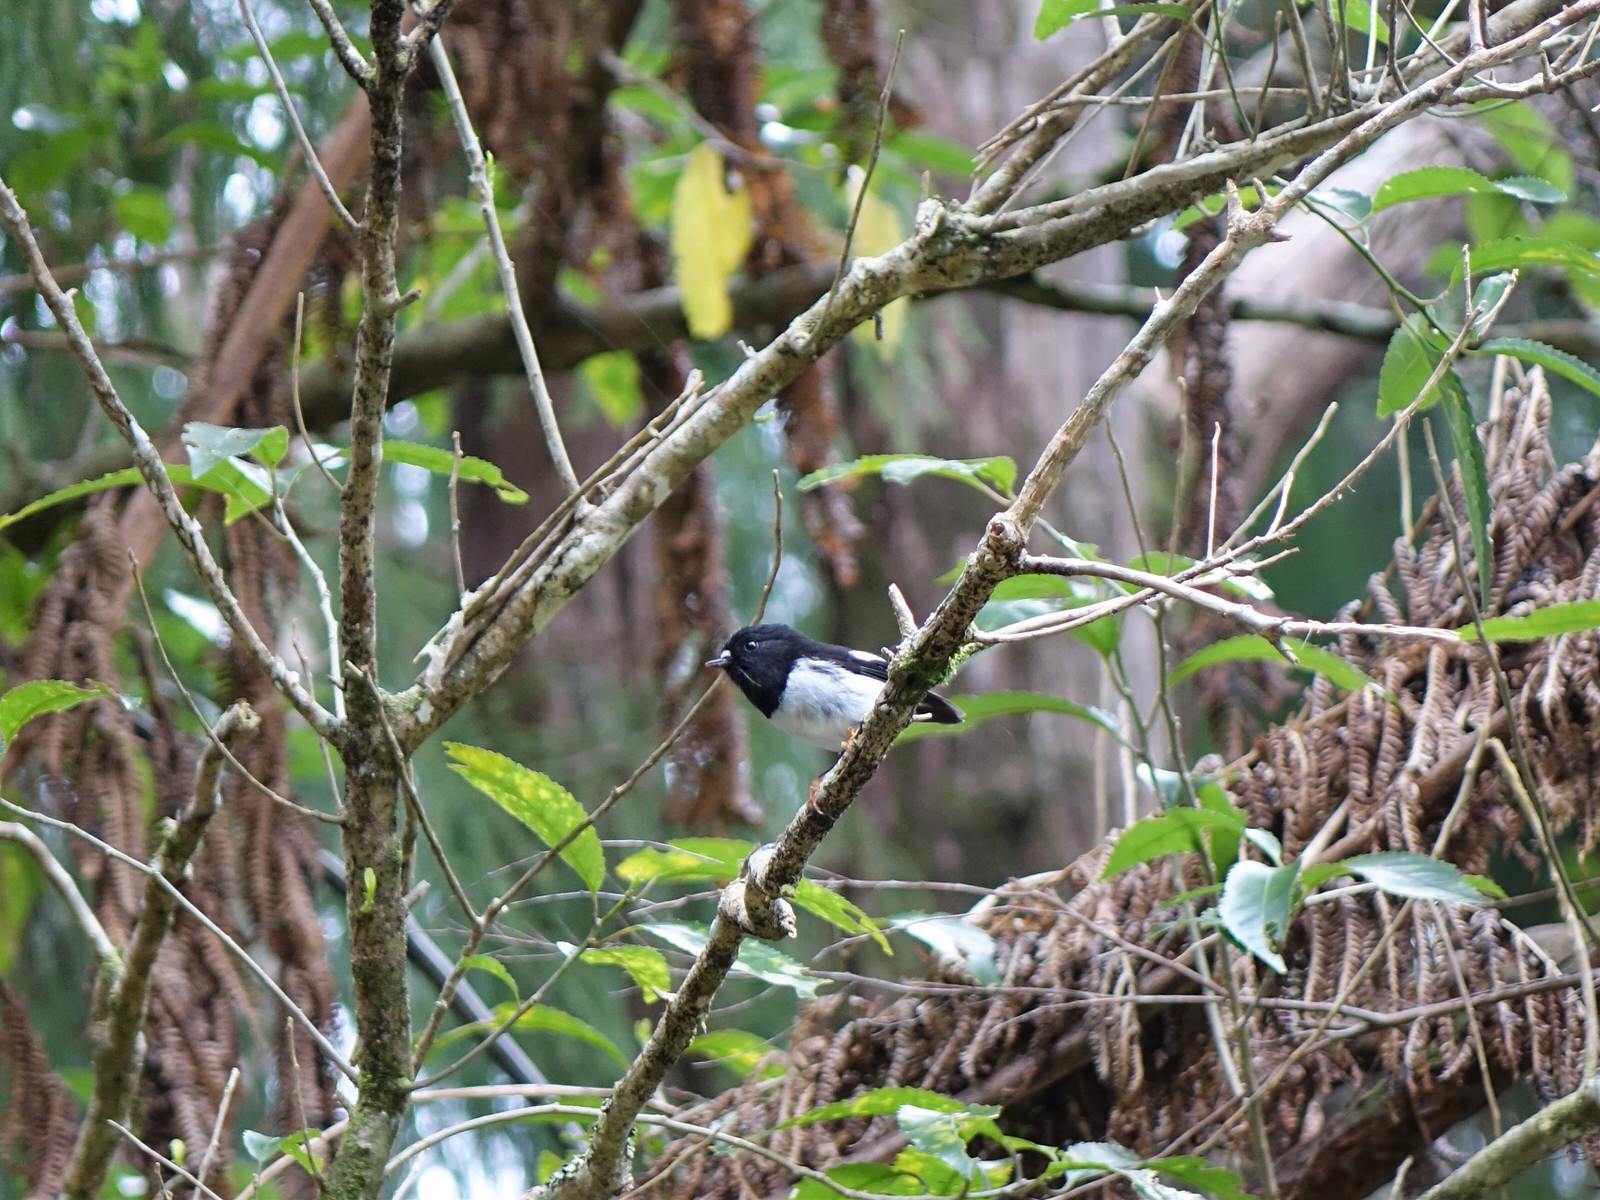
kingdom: Animalia
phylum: Chordata
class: Aves
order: Passeriformes
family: Petroicidae
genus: Petroica
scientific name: Petroica macrocephala
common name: Tomtit
